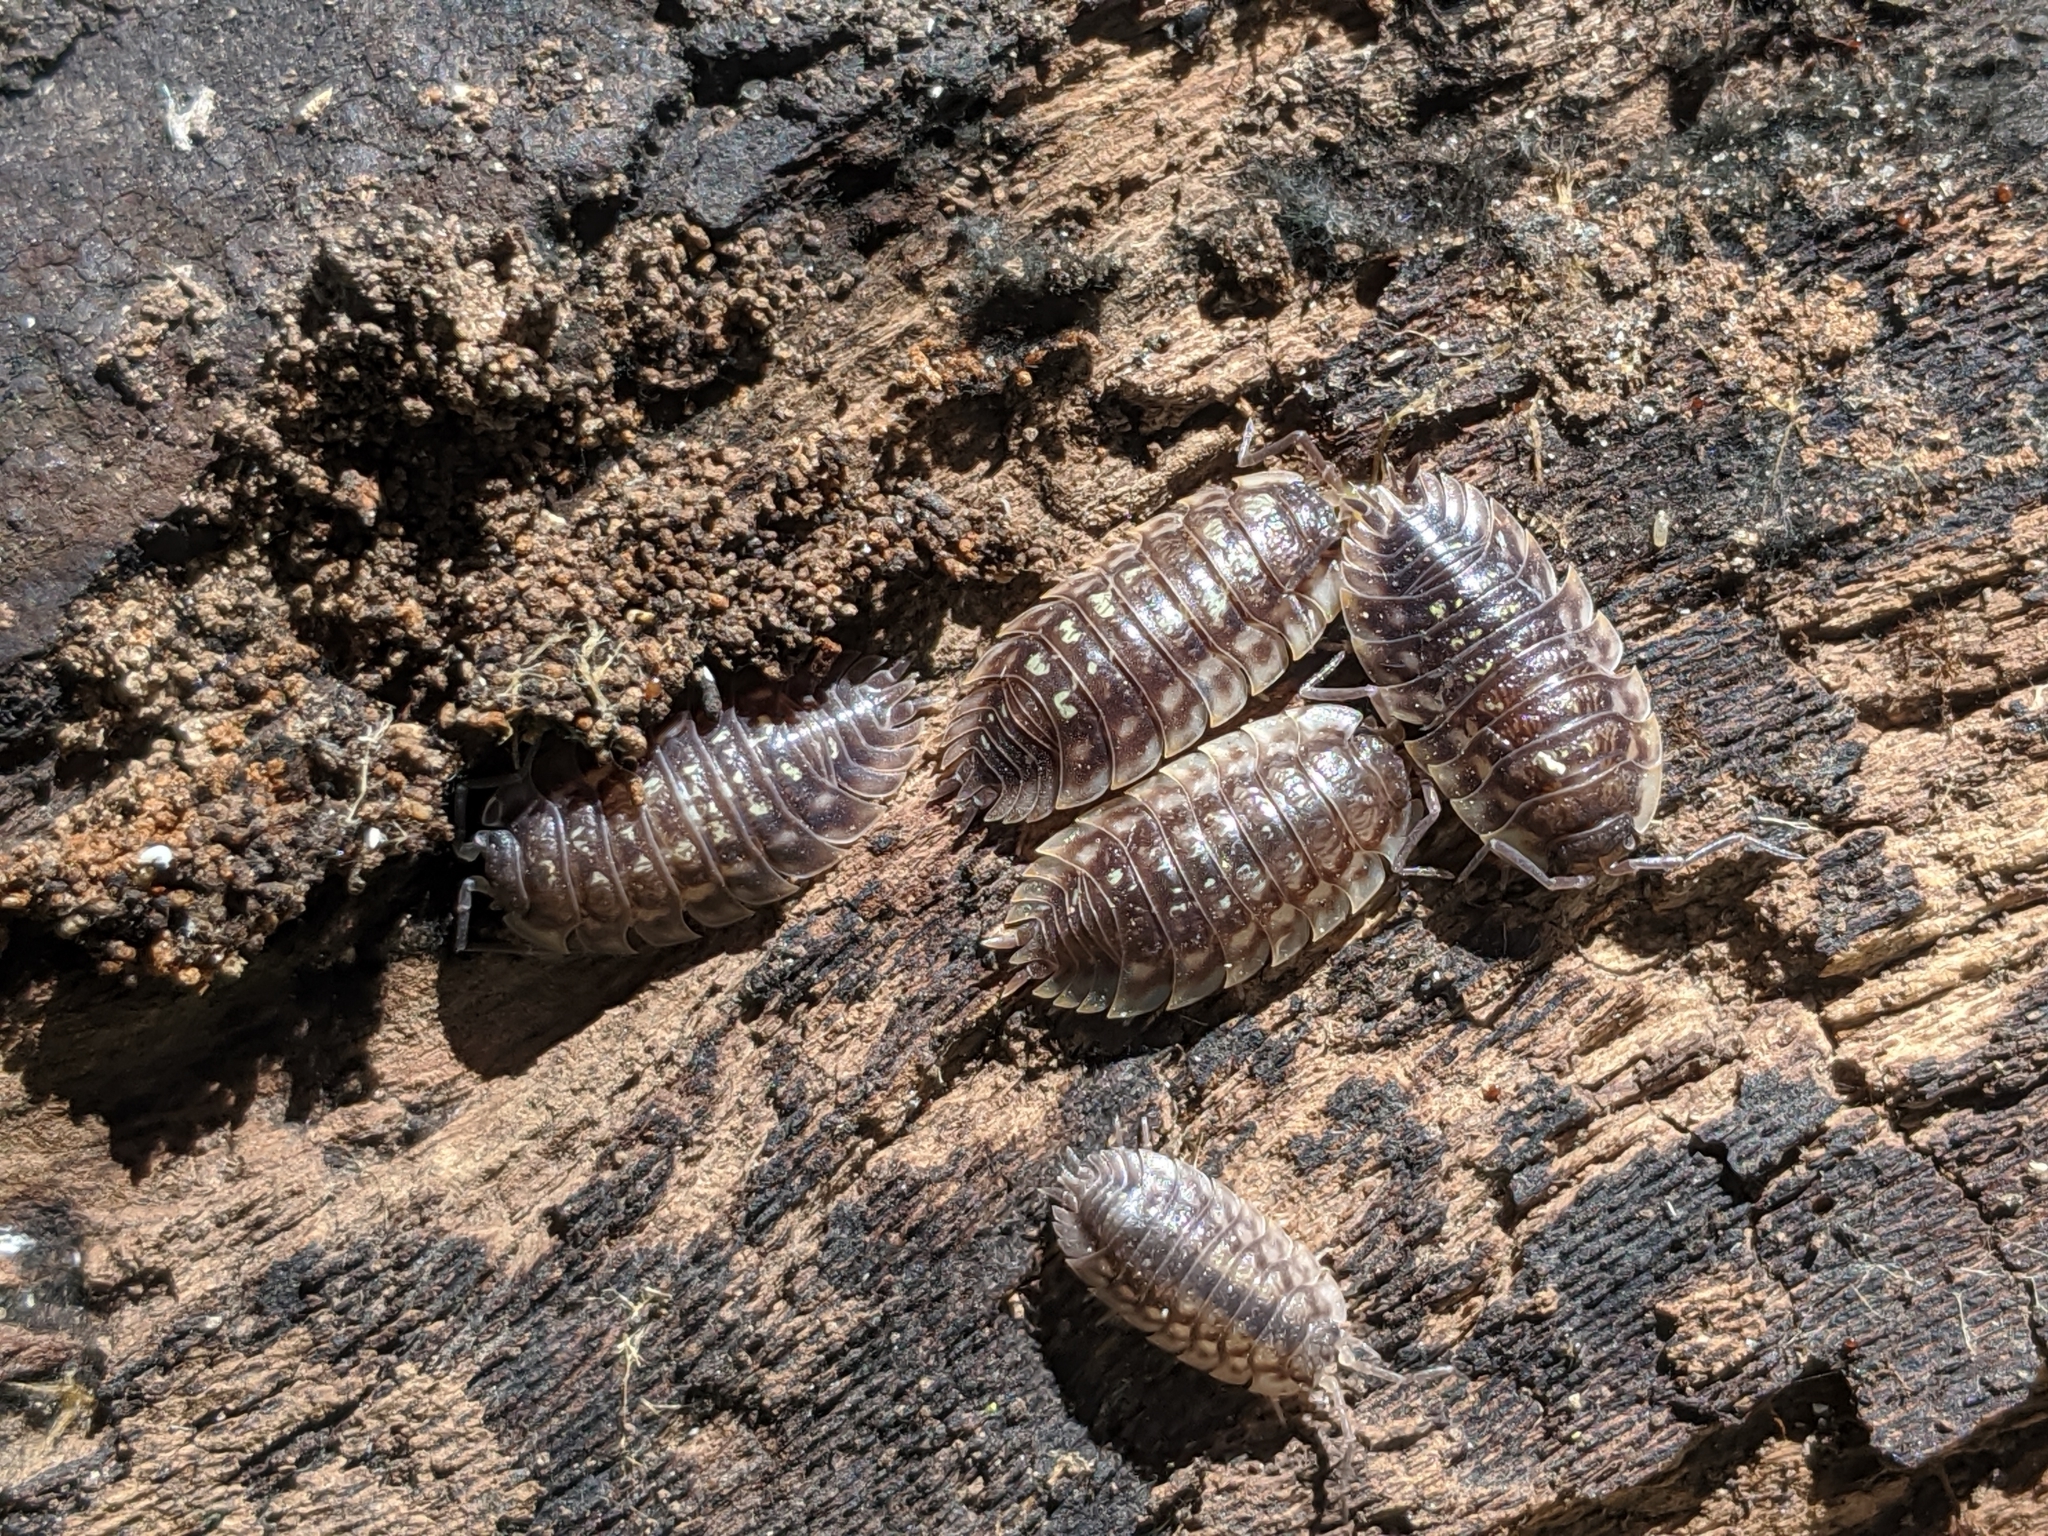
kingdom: Animalia
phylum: Arthropoda
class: Malacostraca
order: Isopoda
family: Oniscidae
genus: Oniscus
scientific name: Oniscus asellus
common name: Common shiny woodlouse
